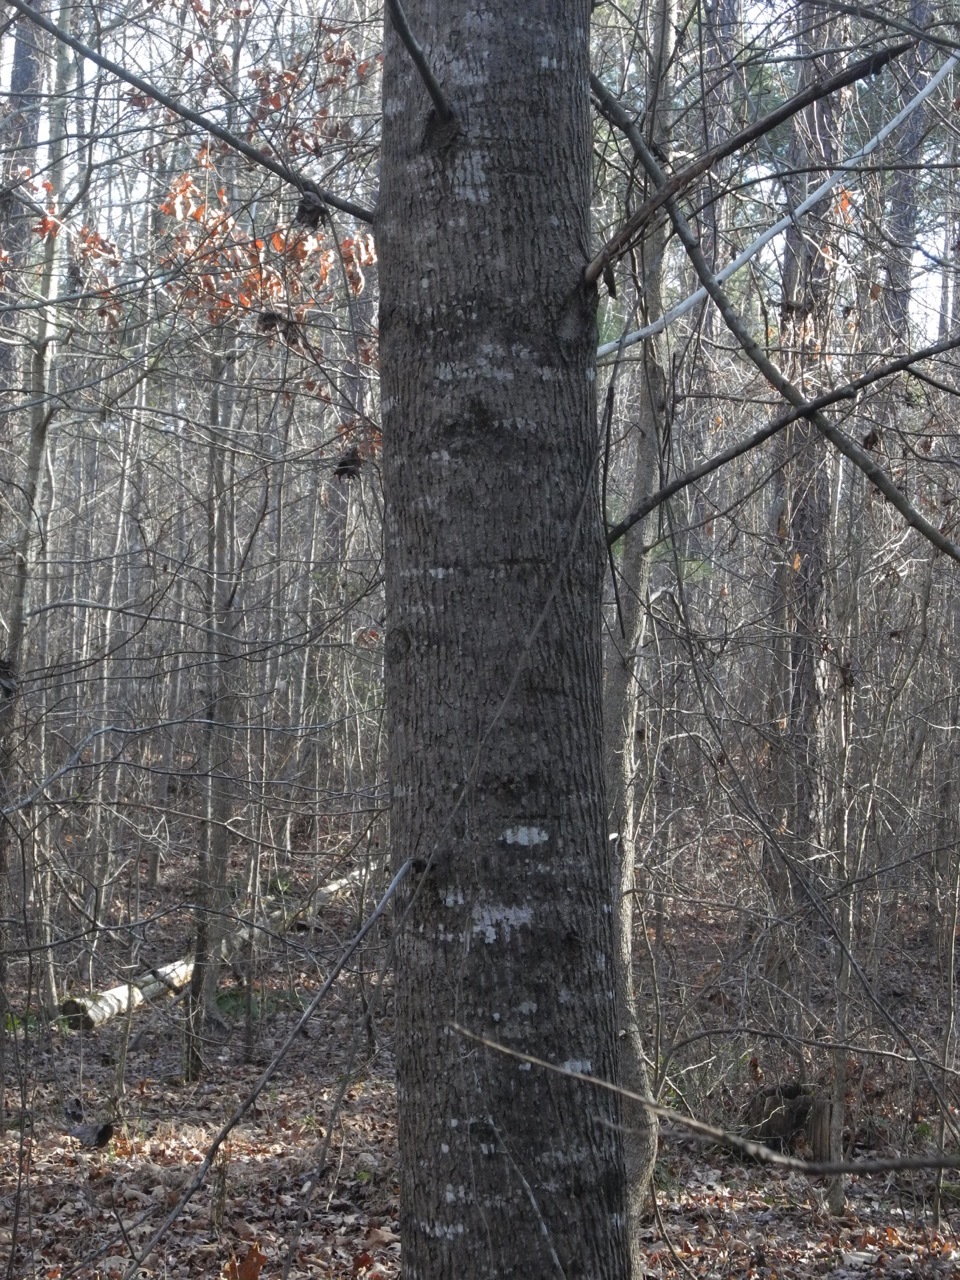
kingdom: Plantae
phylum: Tracheophyta
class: Magnoliopsida
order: Magnoliales
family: Magnoliaceae
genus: Liriodendron
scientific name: Liriodendron tulipifera
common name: Tulip tree
